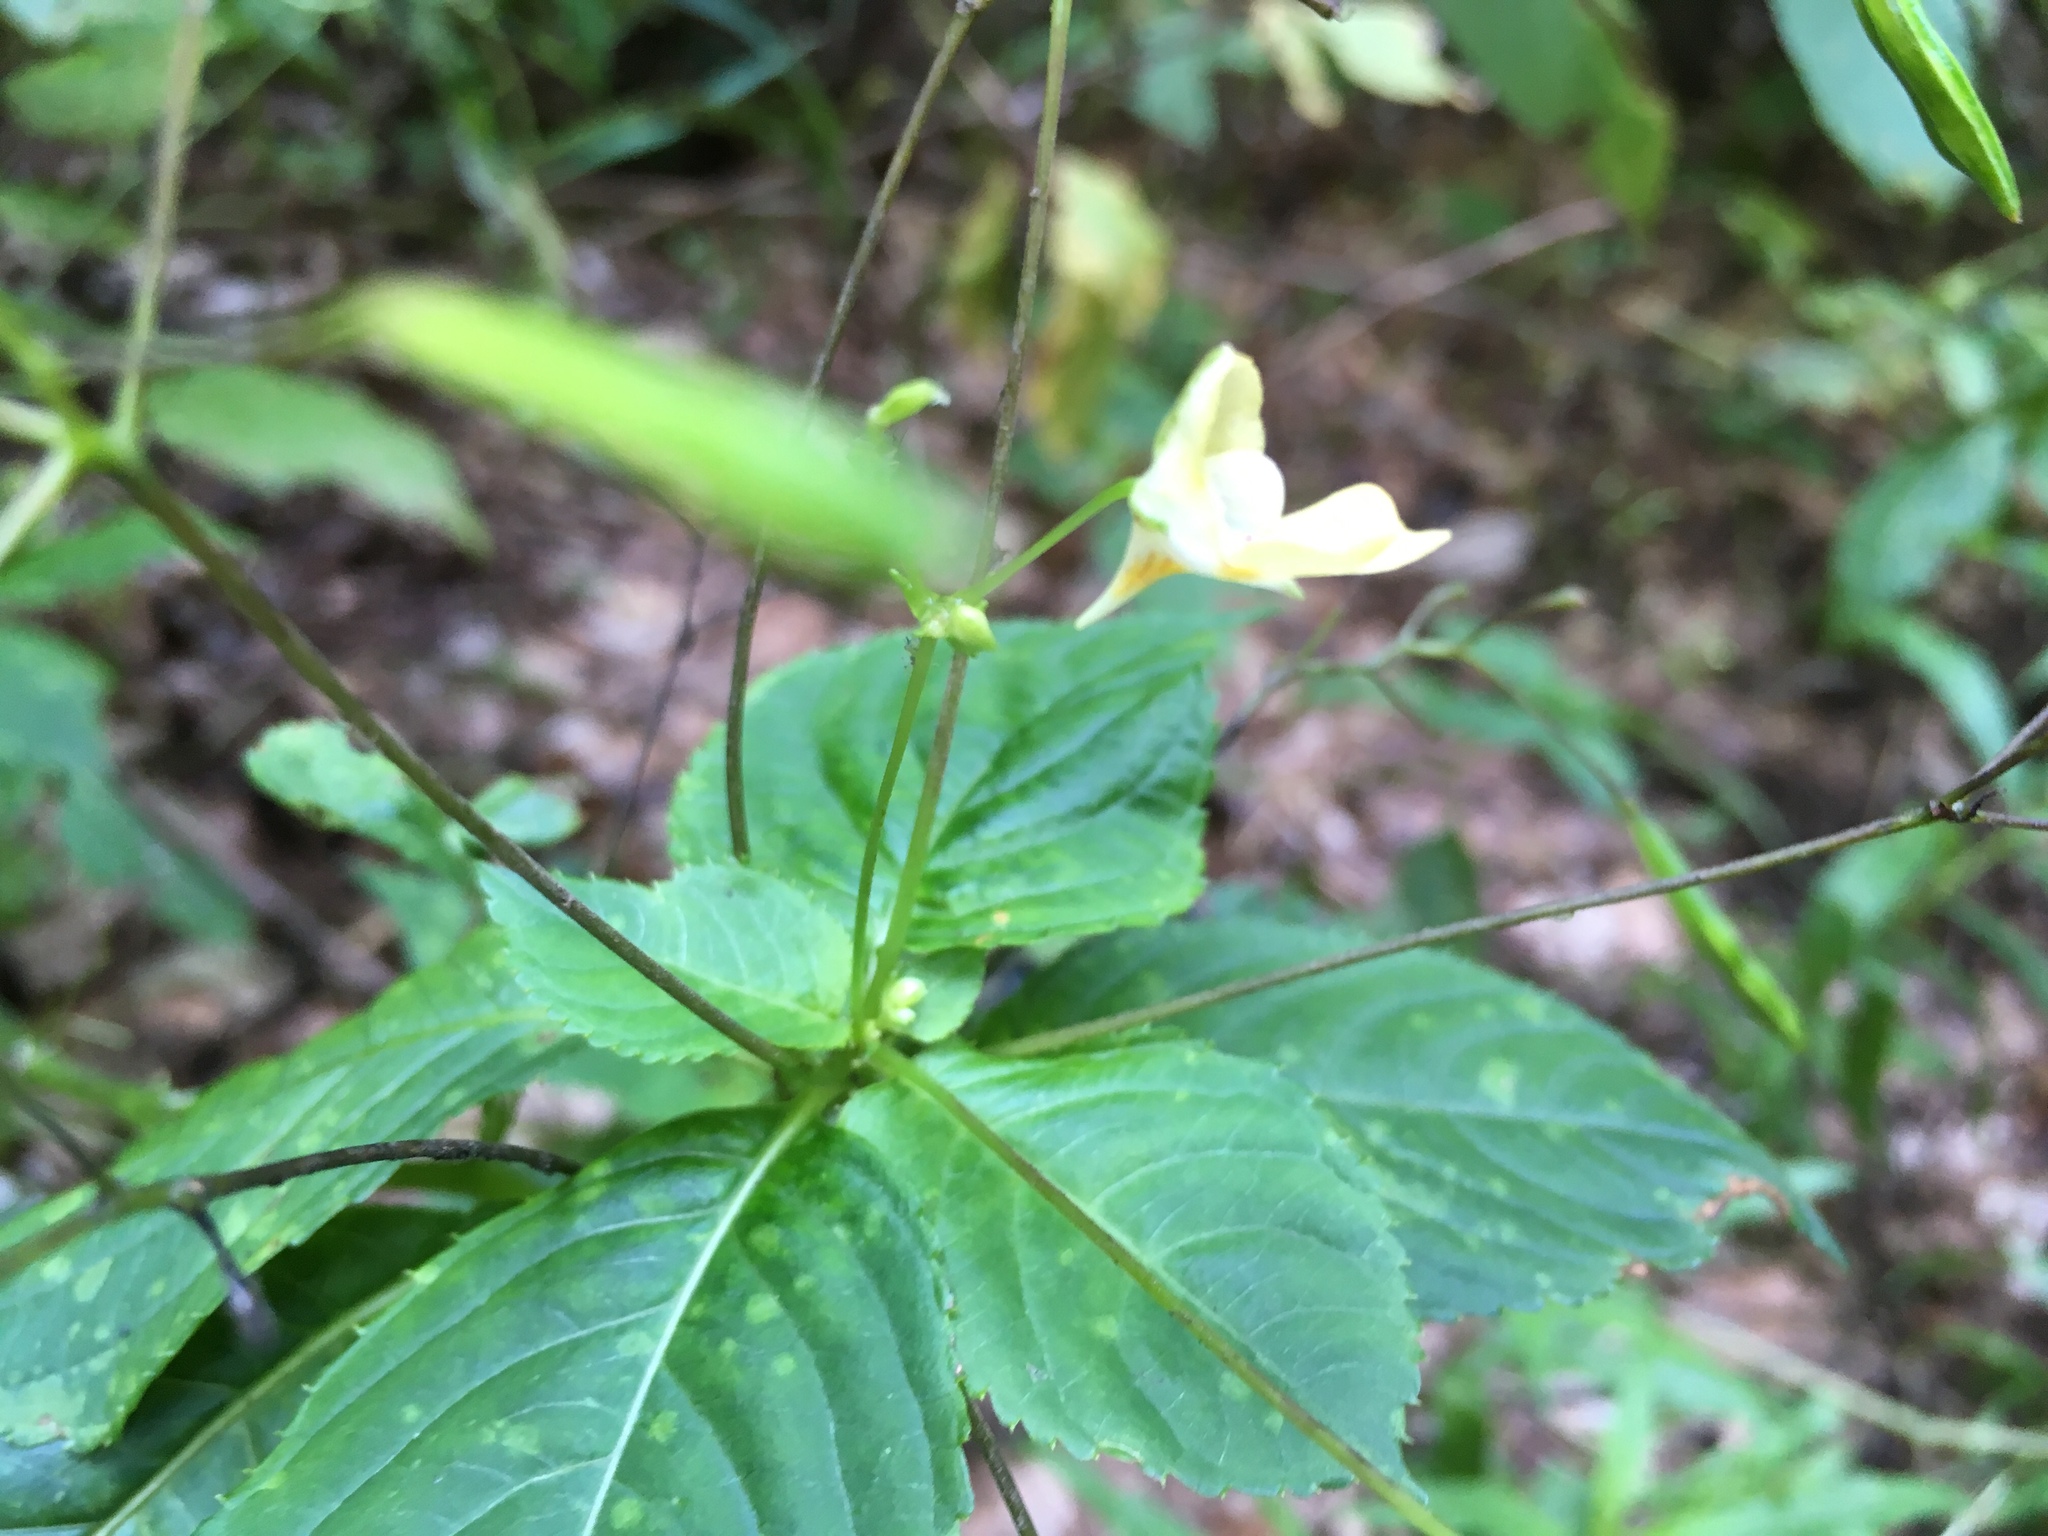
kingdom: Plantae
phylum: Tracheophyta
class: Magnoliopsida
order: Ericales
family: Balsaminaceae
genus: Impatiens
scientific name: Impatiens parviflora
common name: Small balsam
